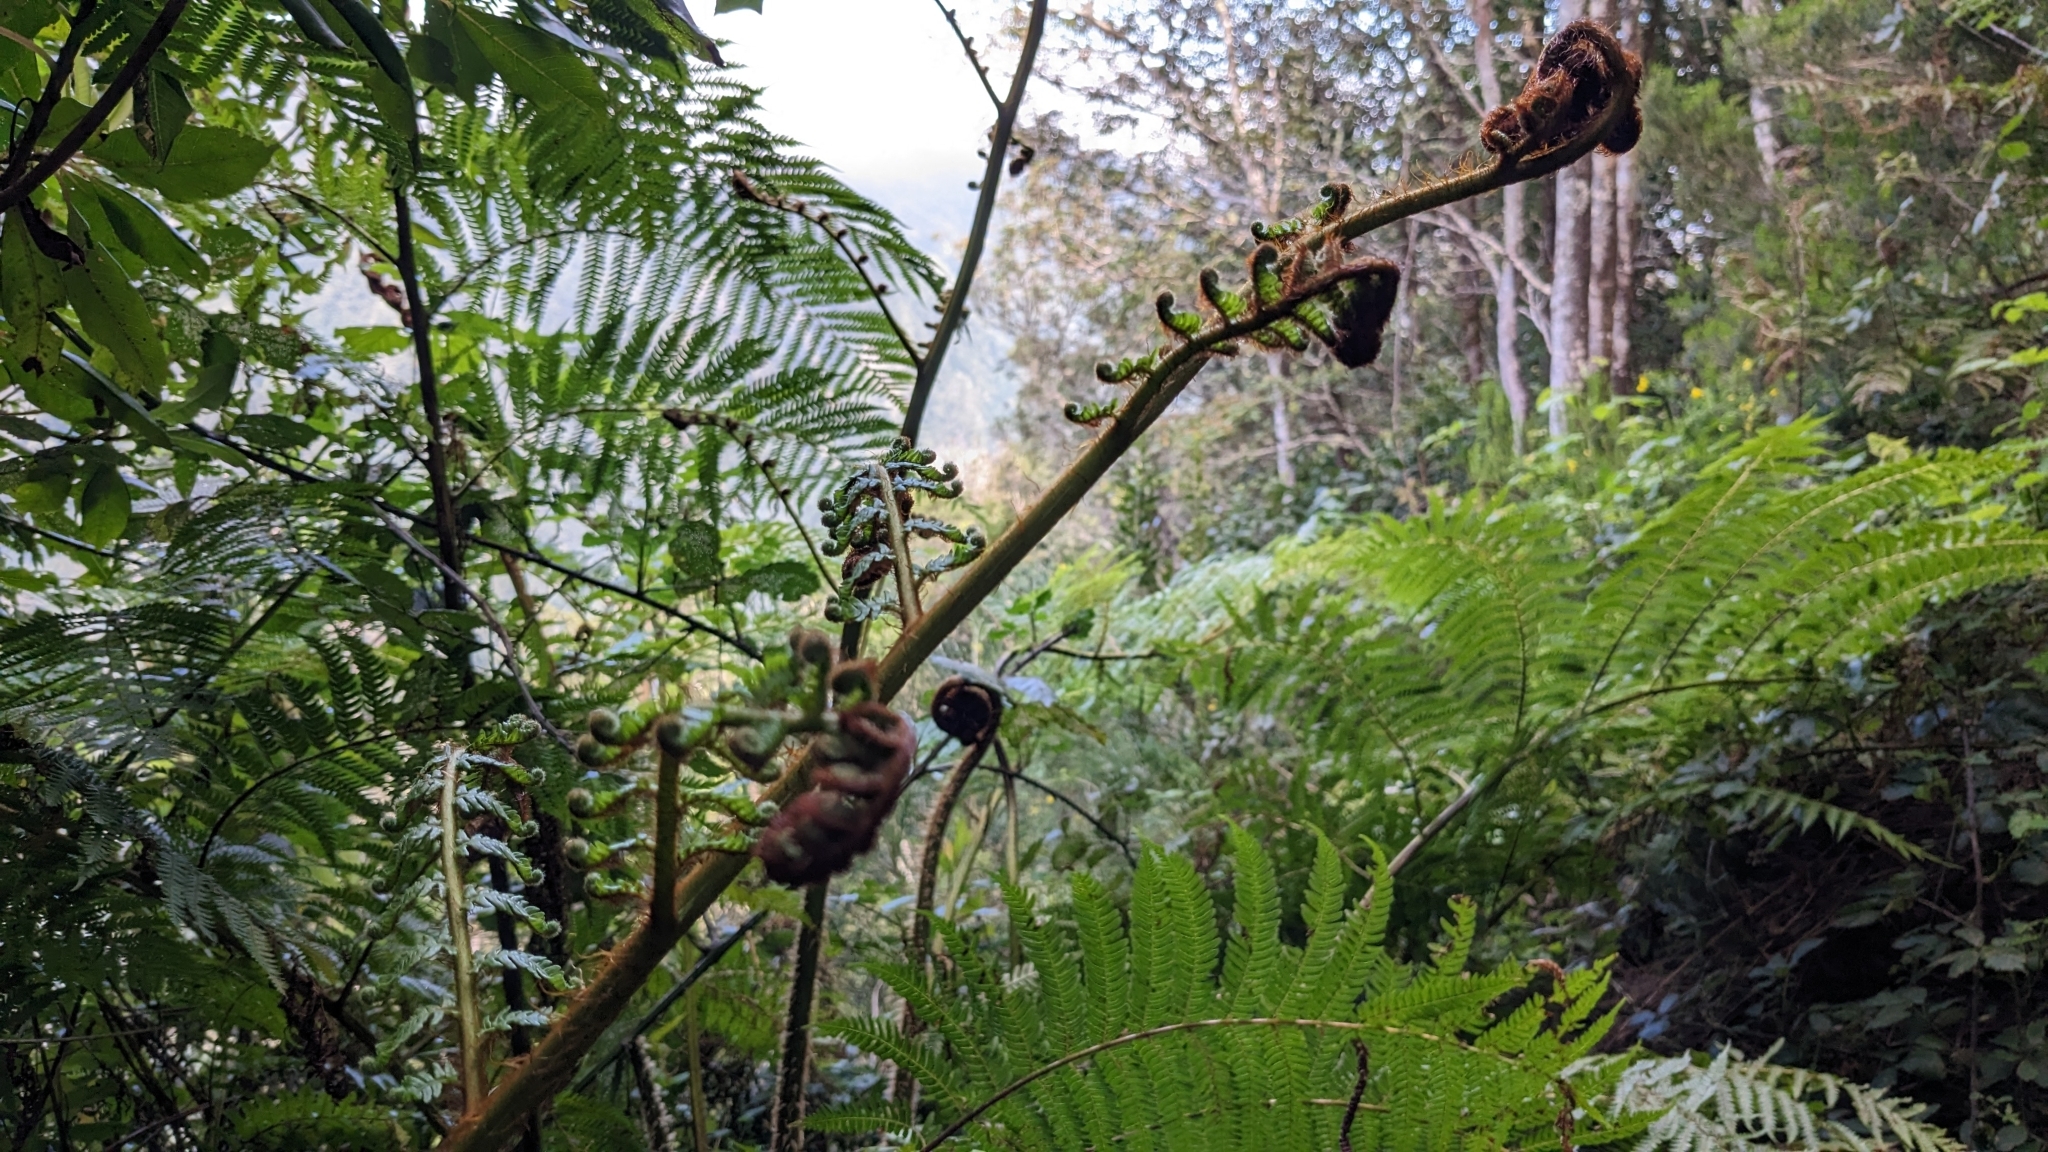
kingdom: Plantae
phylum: Tracheophyta
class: Polypodiopsida
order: Cyatheales
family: Cyatheaceae
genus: Sphaeropteris
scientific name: Sphaeropteris cooperi
